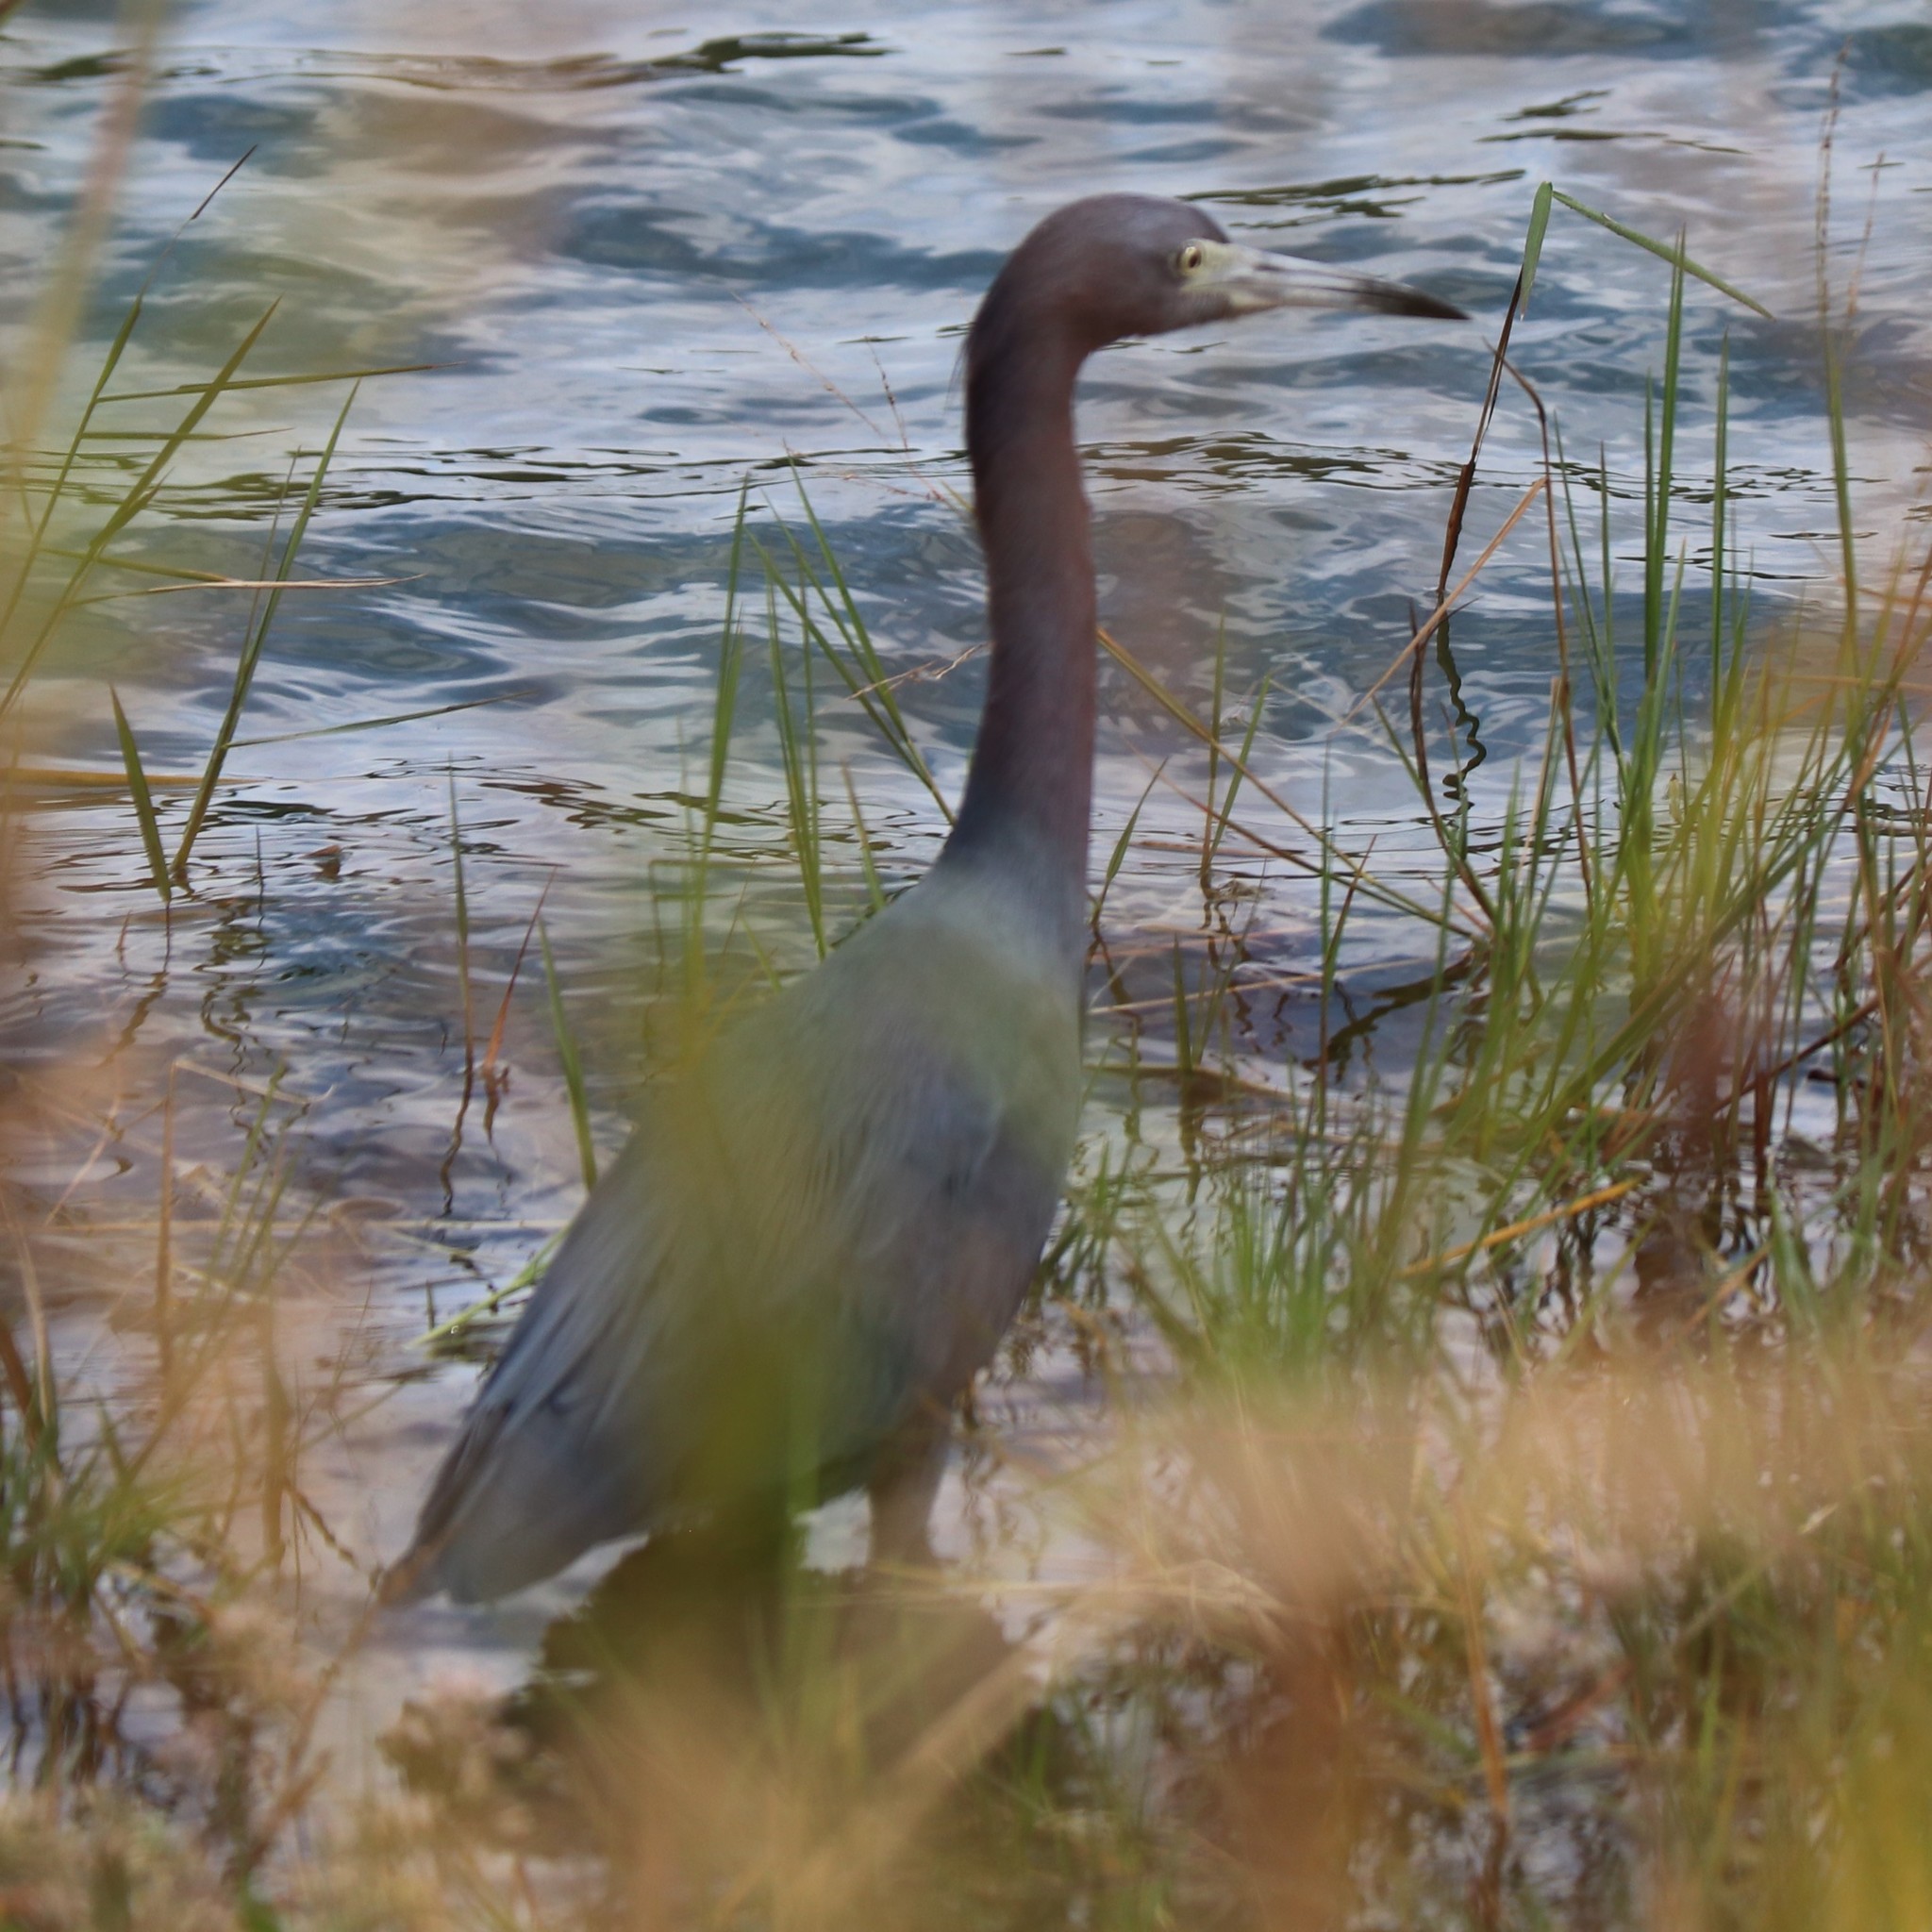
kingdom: Animalia
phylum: Chordata
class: Aves
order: Pelecaniformes
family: Ardeidae
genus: Egretta
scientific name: Egretta caerulea
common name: Little blue heron
